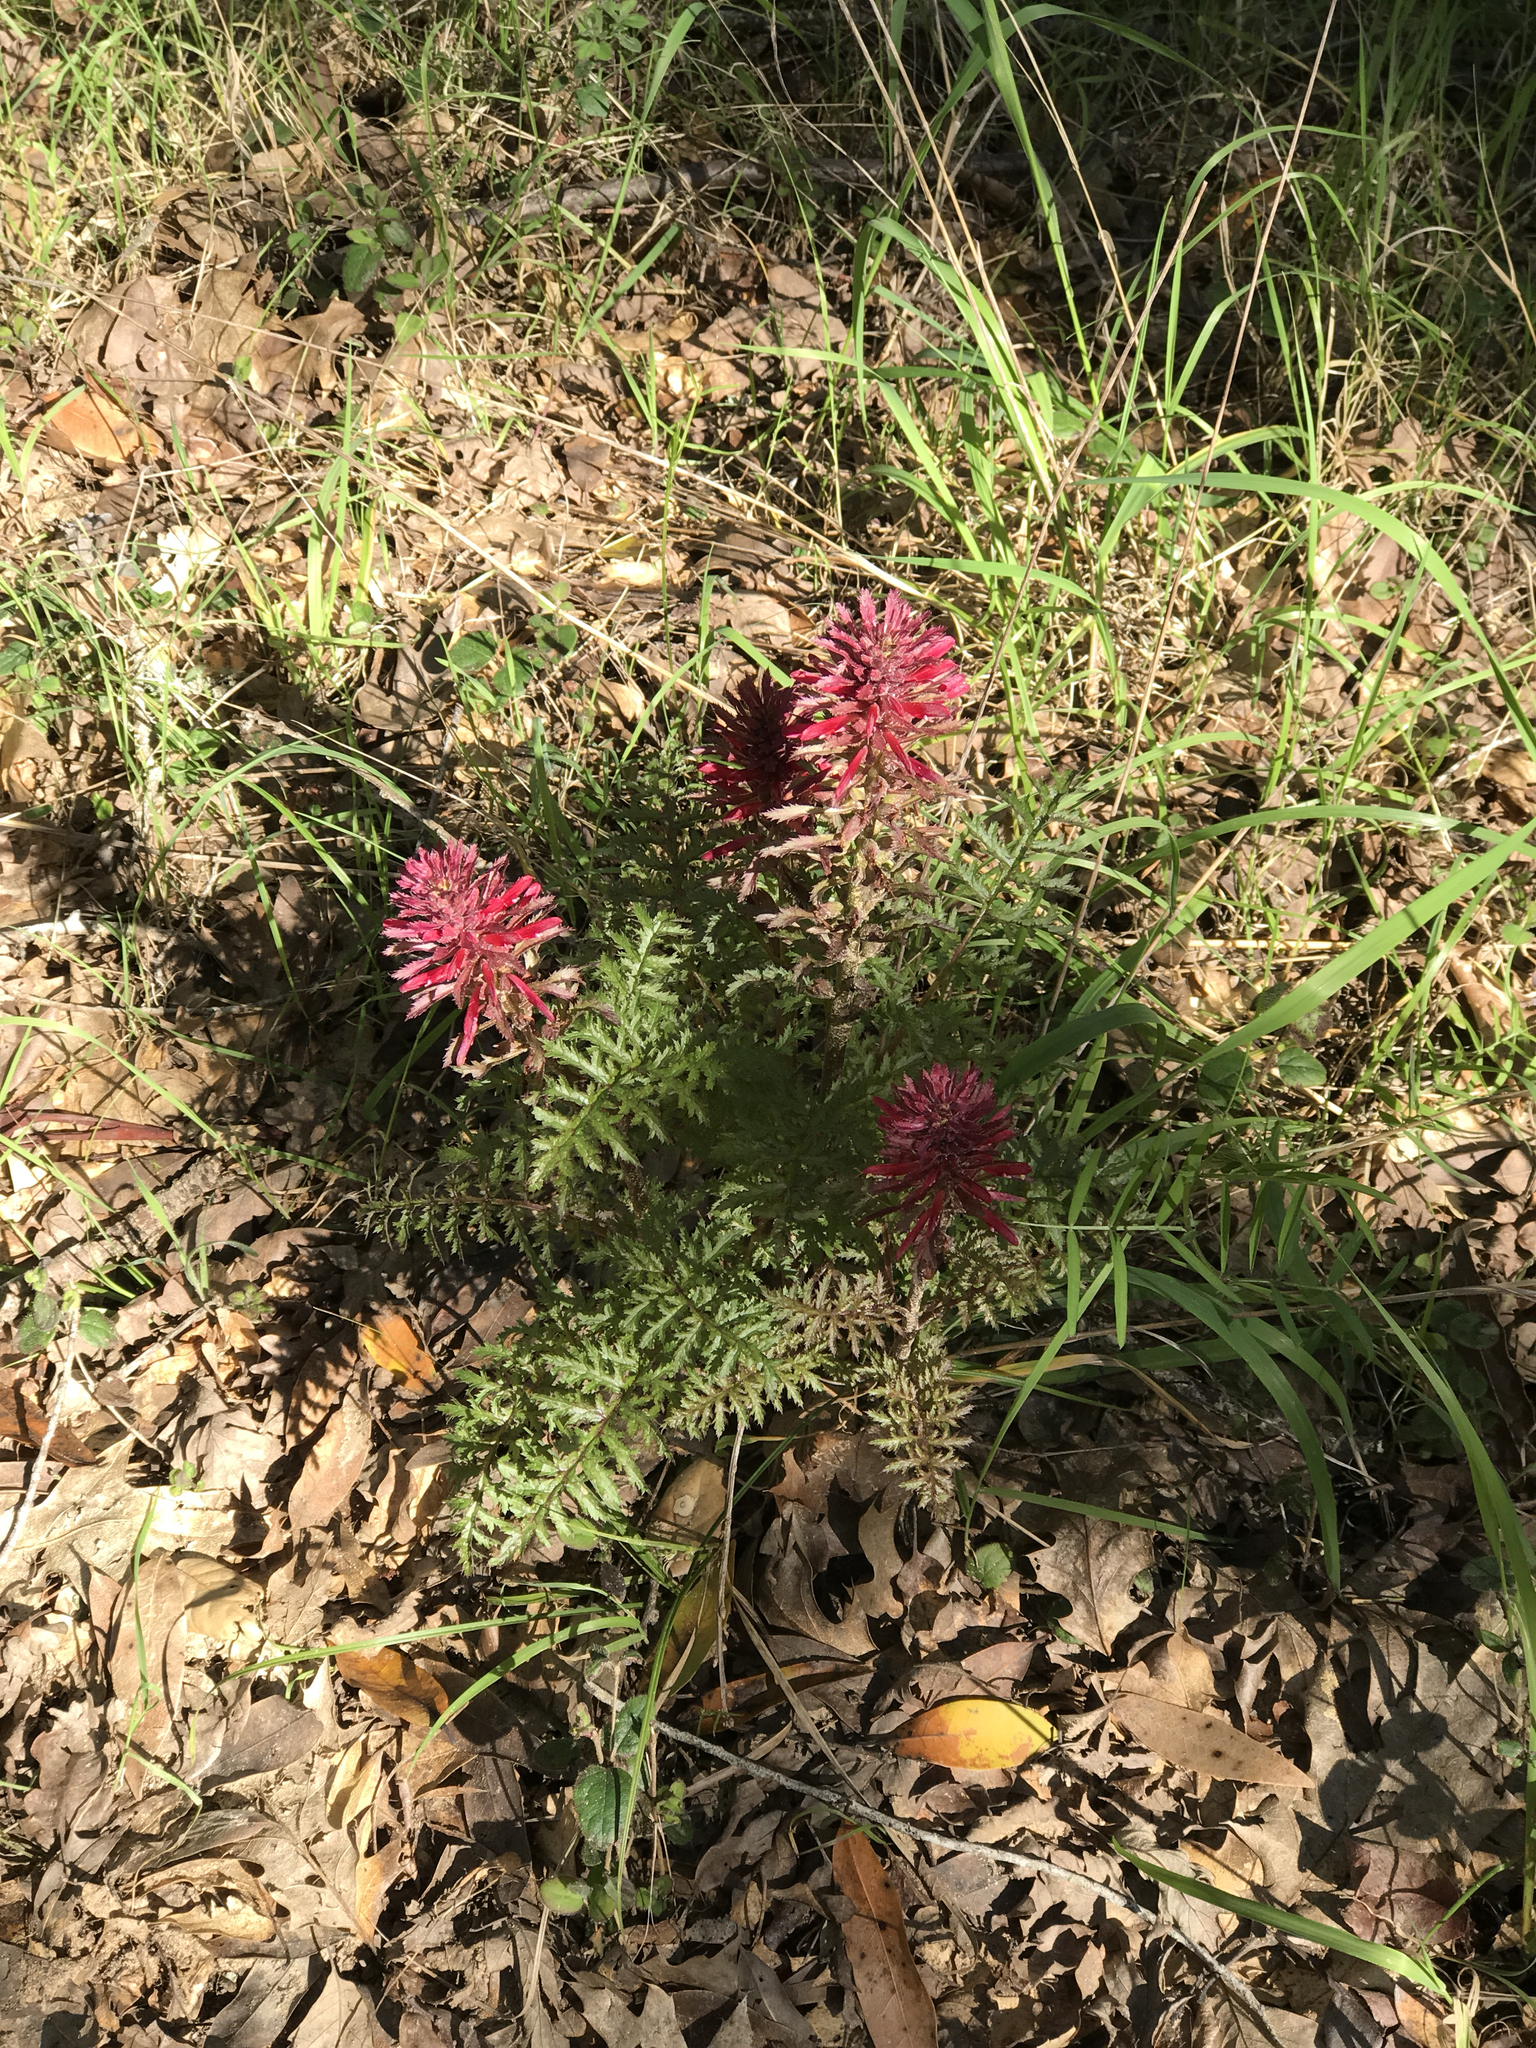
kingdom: Plantae
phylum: Tracheophyta
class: Magnoliopsida
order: Lamiales
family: Orobanchaceae
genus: Pedicularis
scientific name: Pedicularis densiflora
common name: Indian warrior
